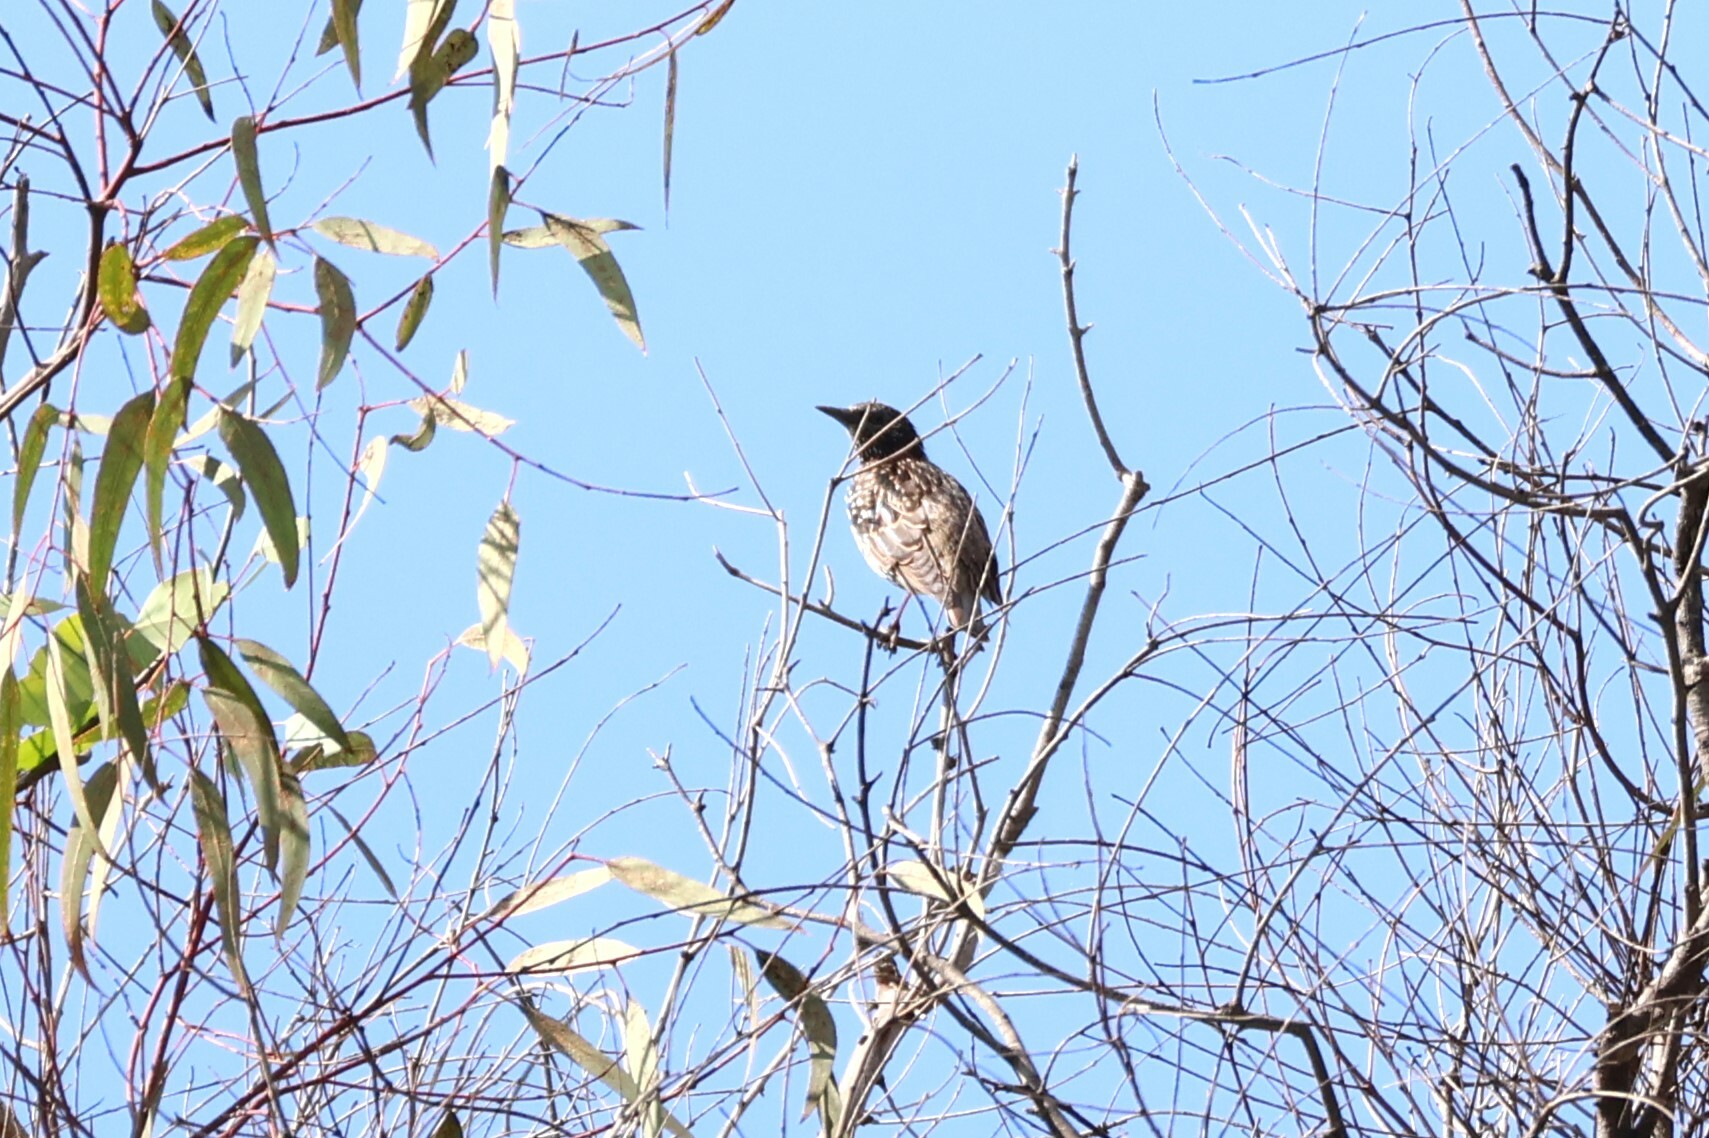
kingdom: Animalia
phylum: Chordata
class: Aves
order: Passeriformes
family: Sturnidae
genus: Sturnus
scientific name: Sturnus vulgaris
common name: Common starling
